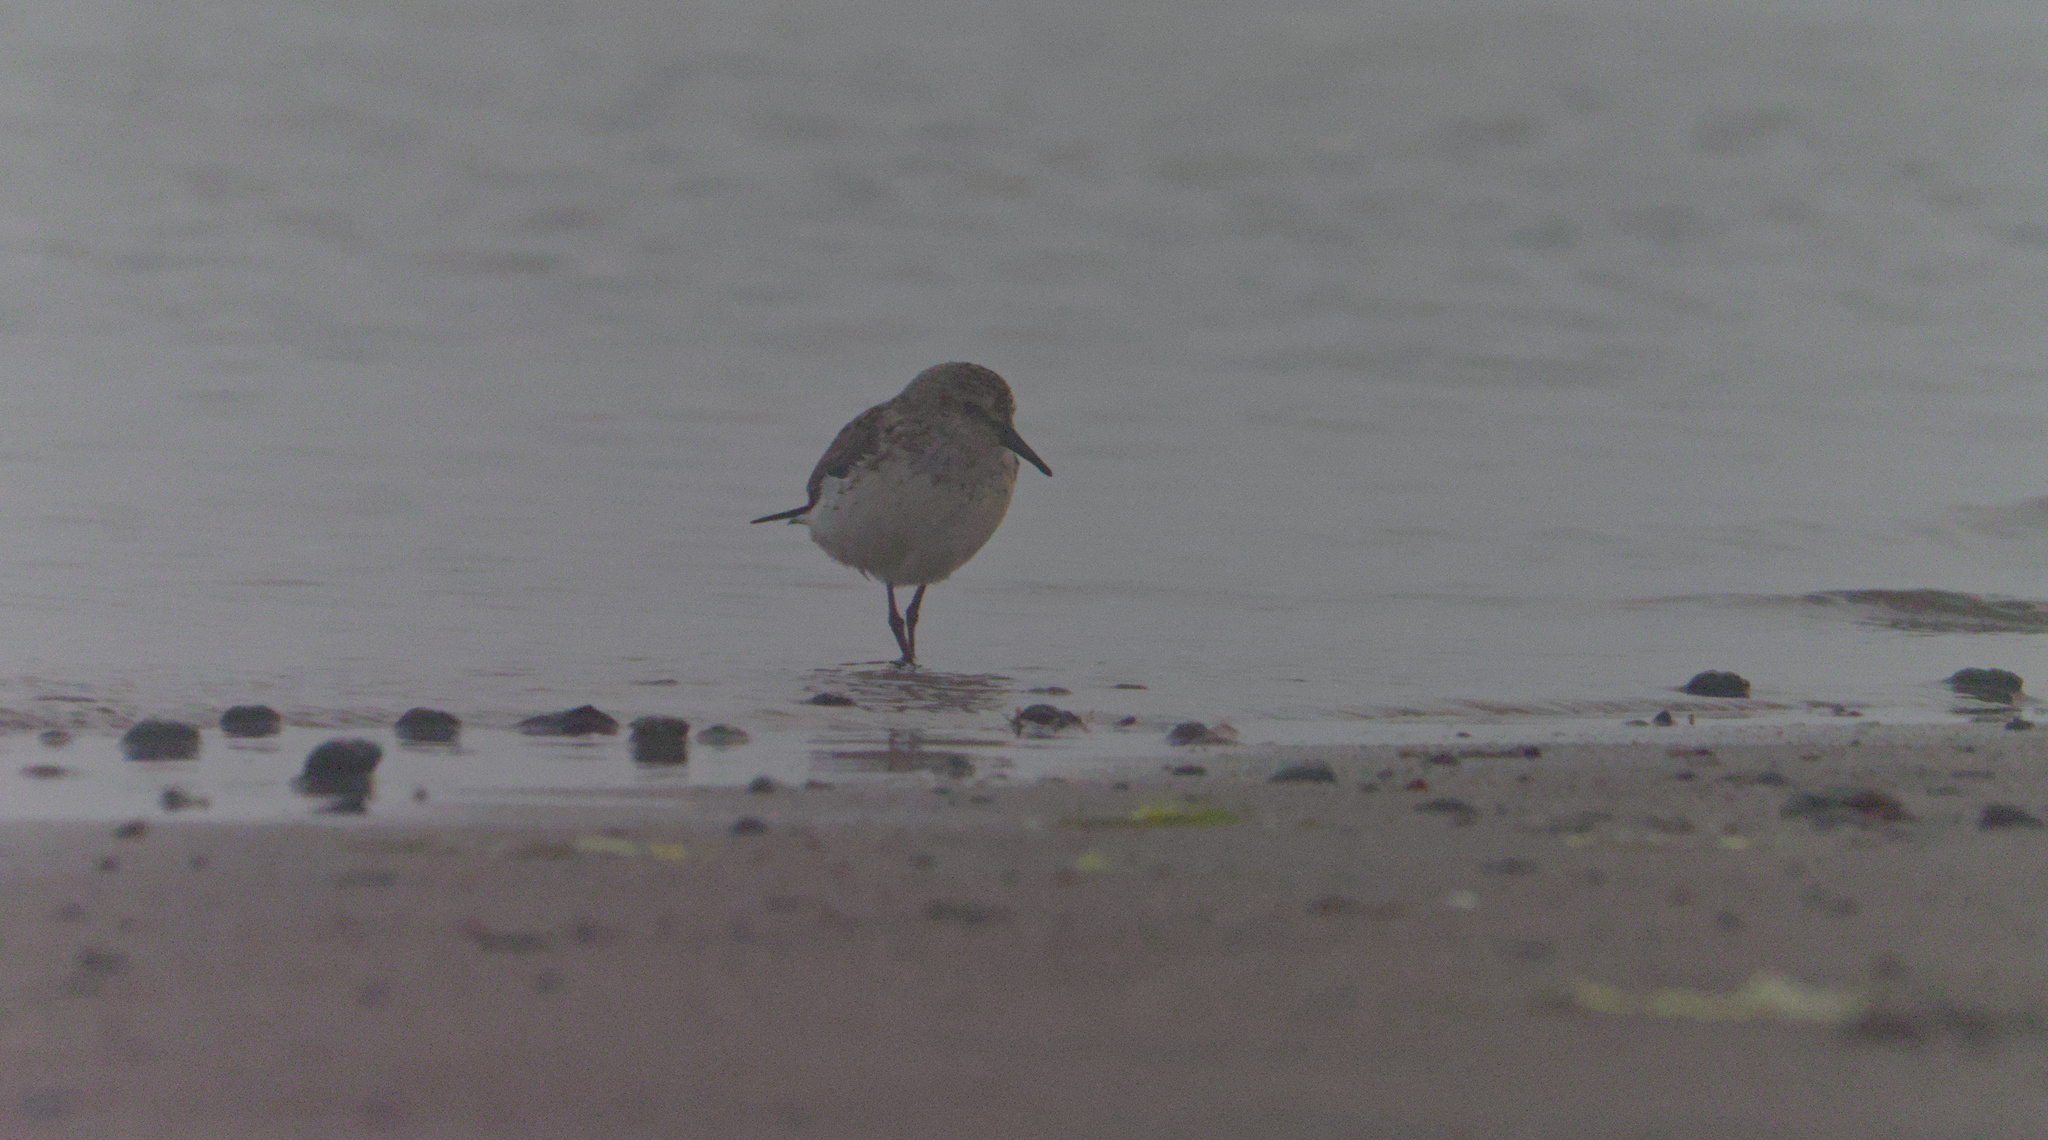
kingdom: Animalia
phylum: Chordata
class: Aves
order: Charadriiformes
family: Scolopacidae
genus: Calidris
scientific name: Calidris pusilla
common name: Semipalmated sandpiper
